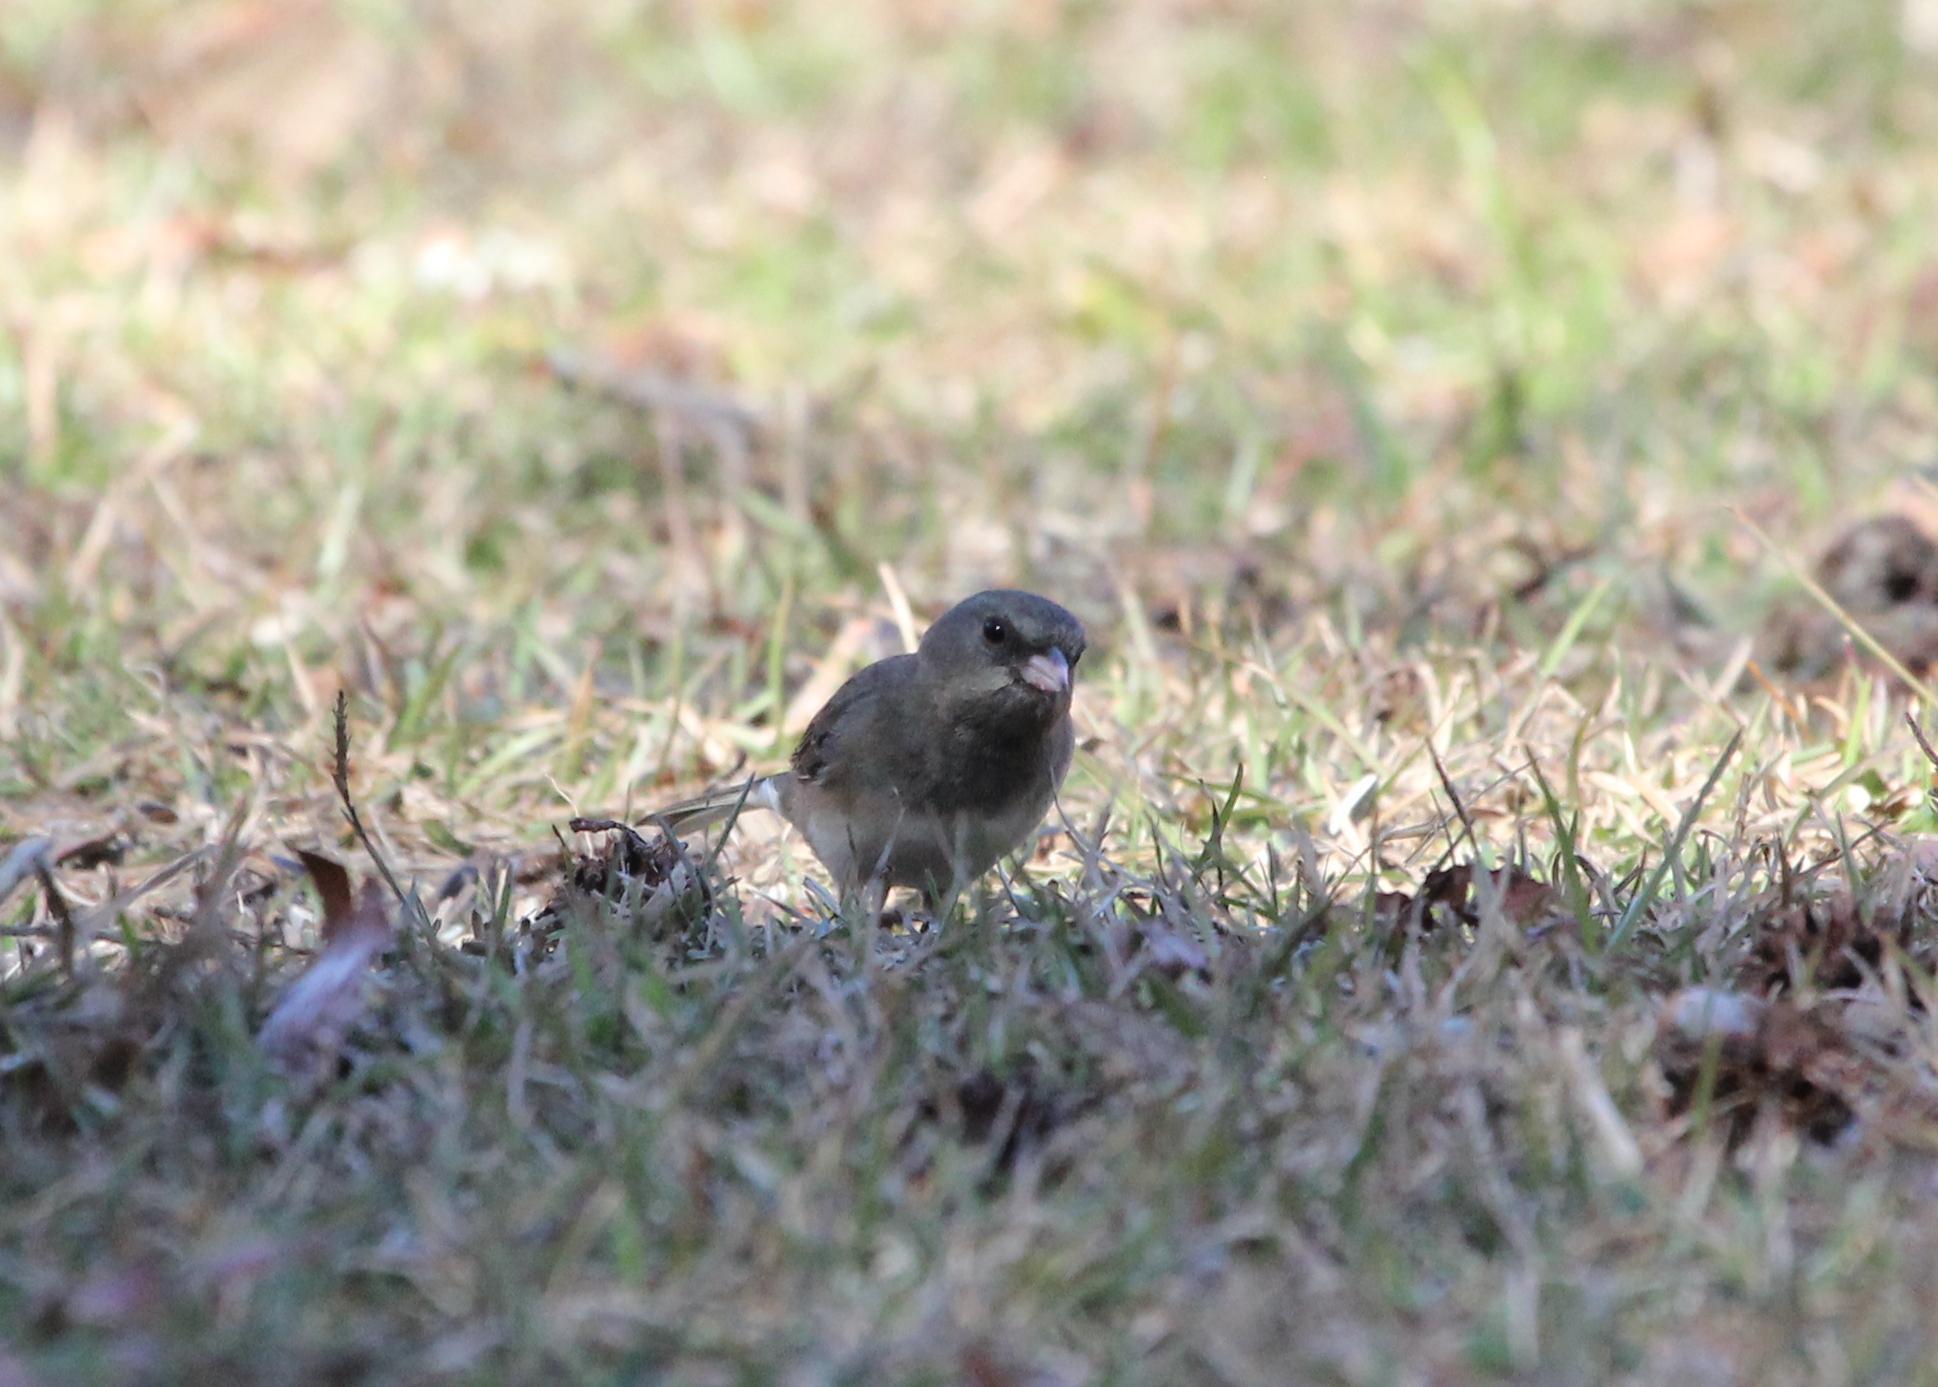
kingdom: Animalia
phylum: Chordata
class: Aves
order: Passeriformes
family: Passerellidae
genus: Junco
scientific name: Junco hyemalis
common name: Dark-eyed junco
